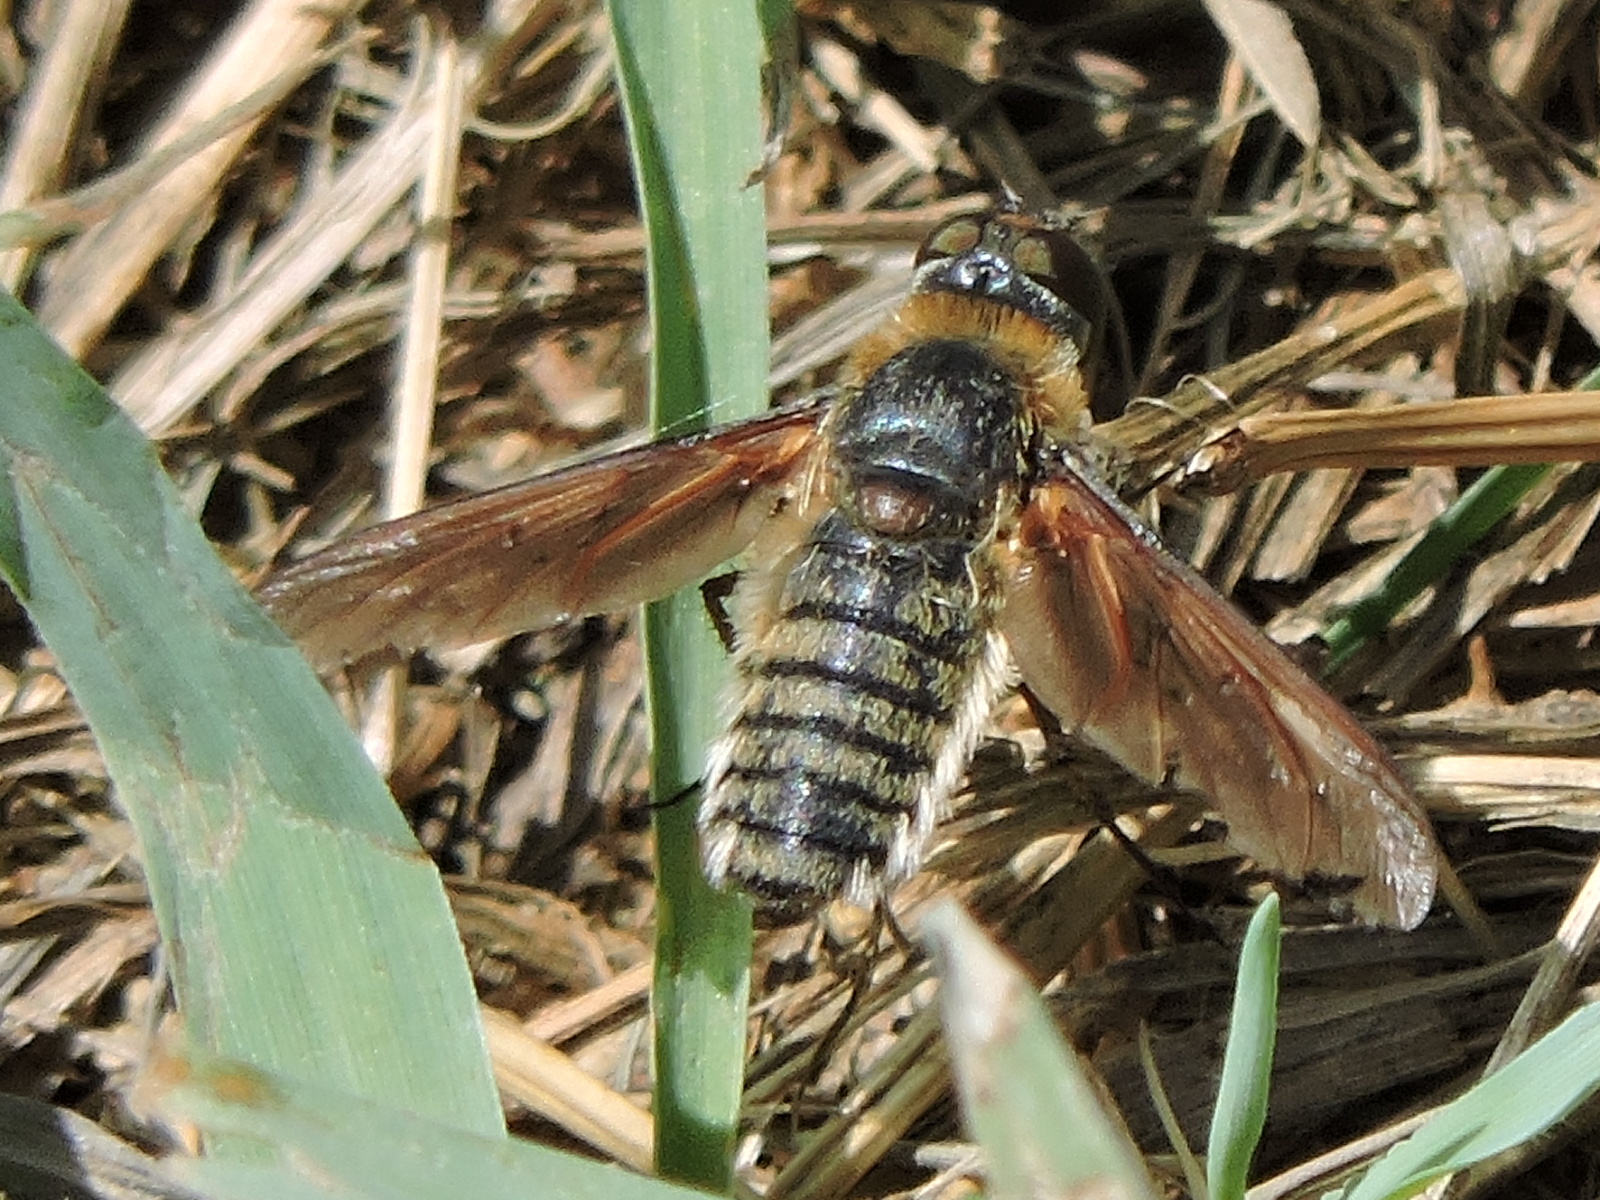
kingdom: Animalia
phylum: Arthropoda
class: Insecta
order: Diptera
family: Bombyliidae
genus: Poecilanthrax
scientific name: Poecilanthrax lucifer
